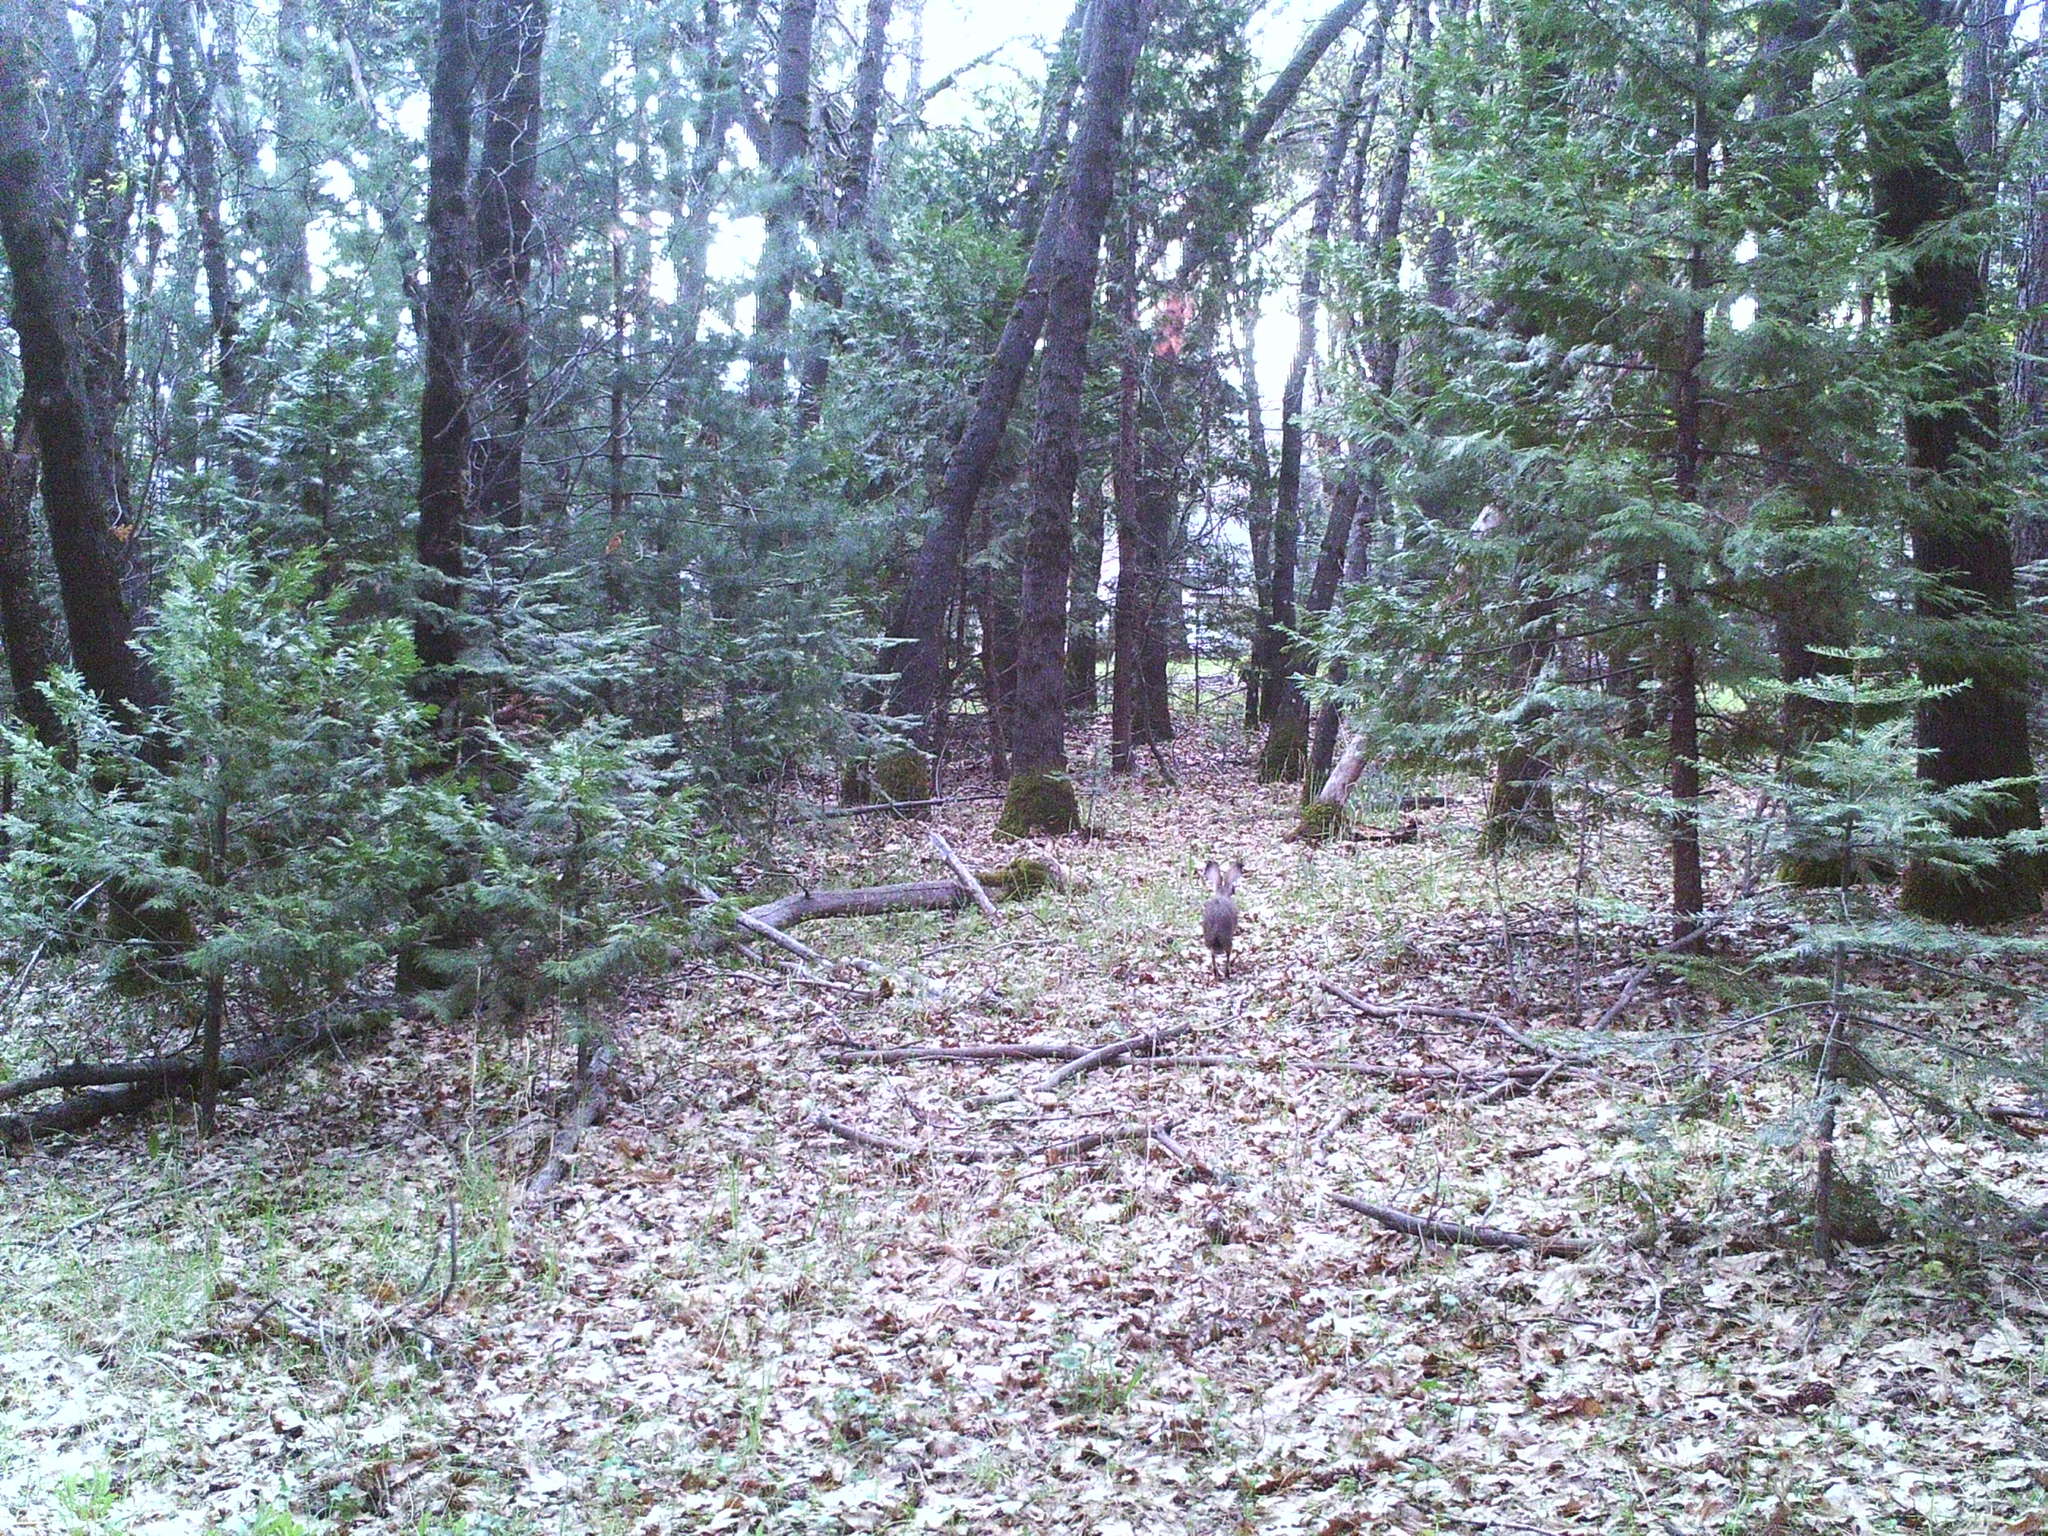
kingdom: Animalia
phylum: Chordata
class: Mammalia
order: Lagomorpha
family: Leporidae
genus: Lepus
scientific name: Lepus californicus
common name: Black-tailed jackrabbit
